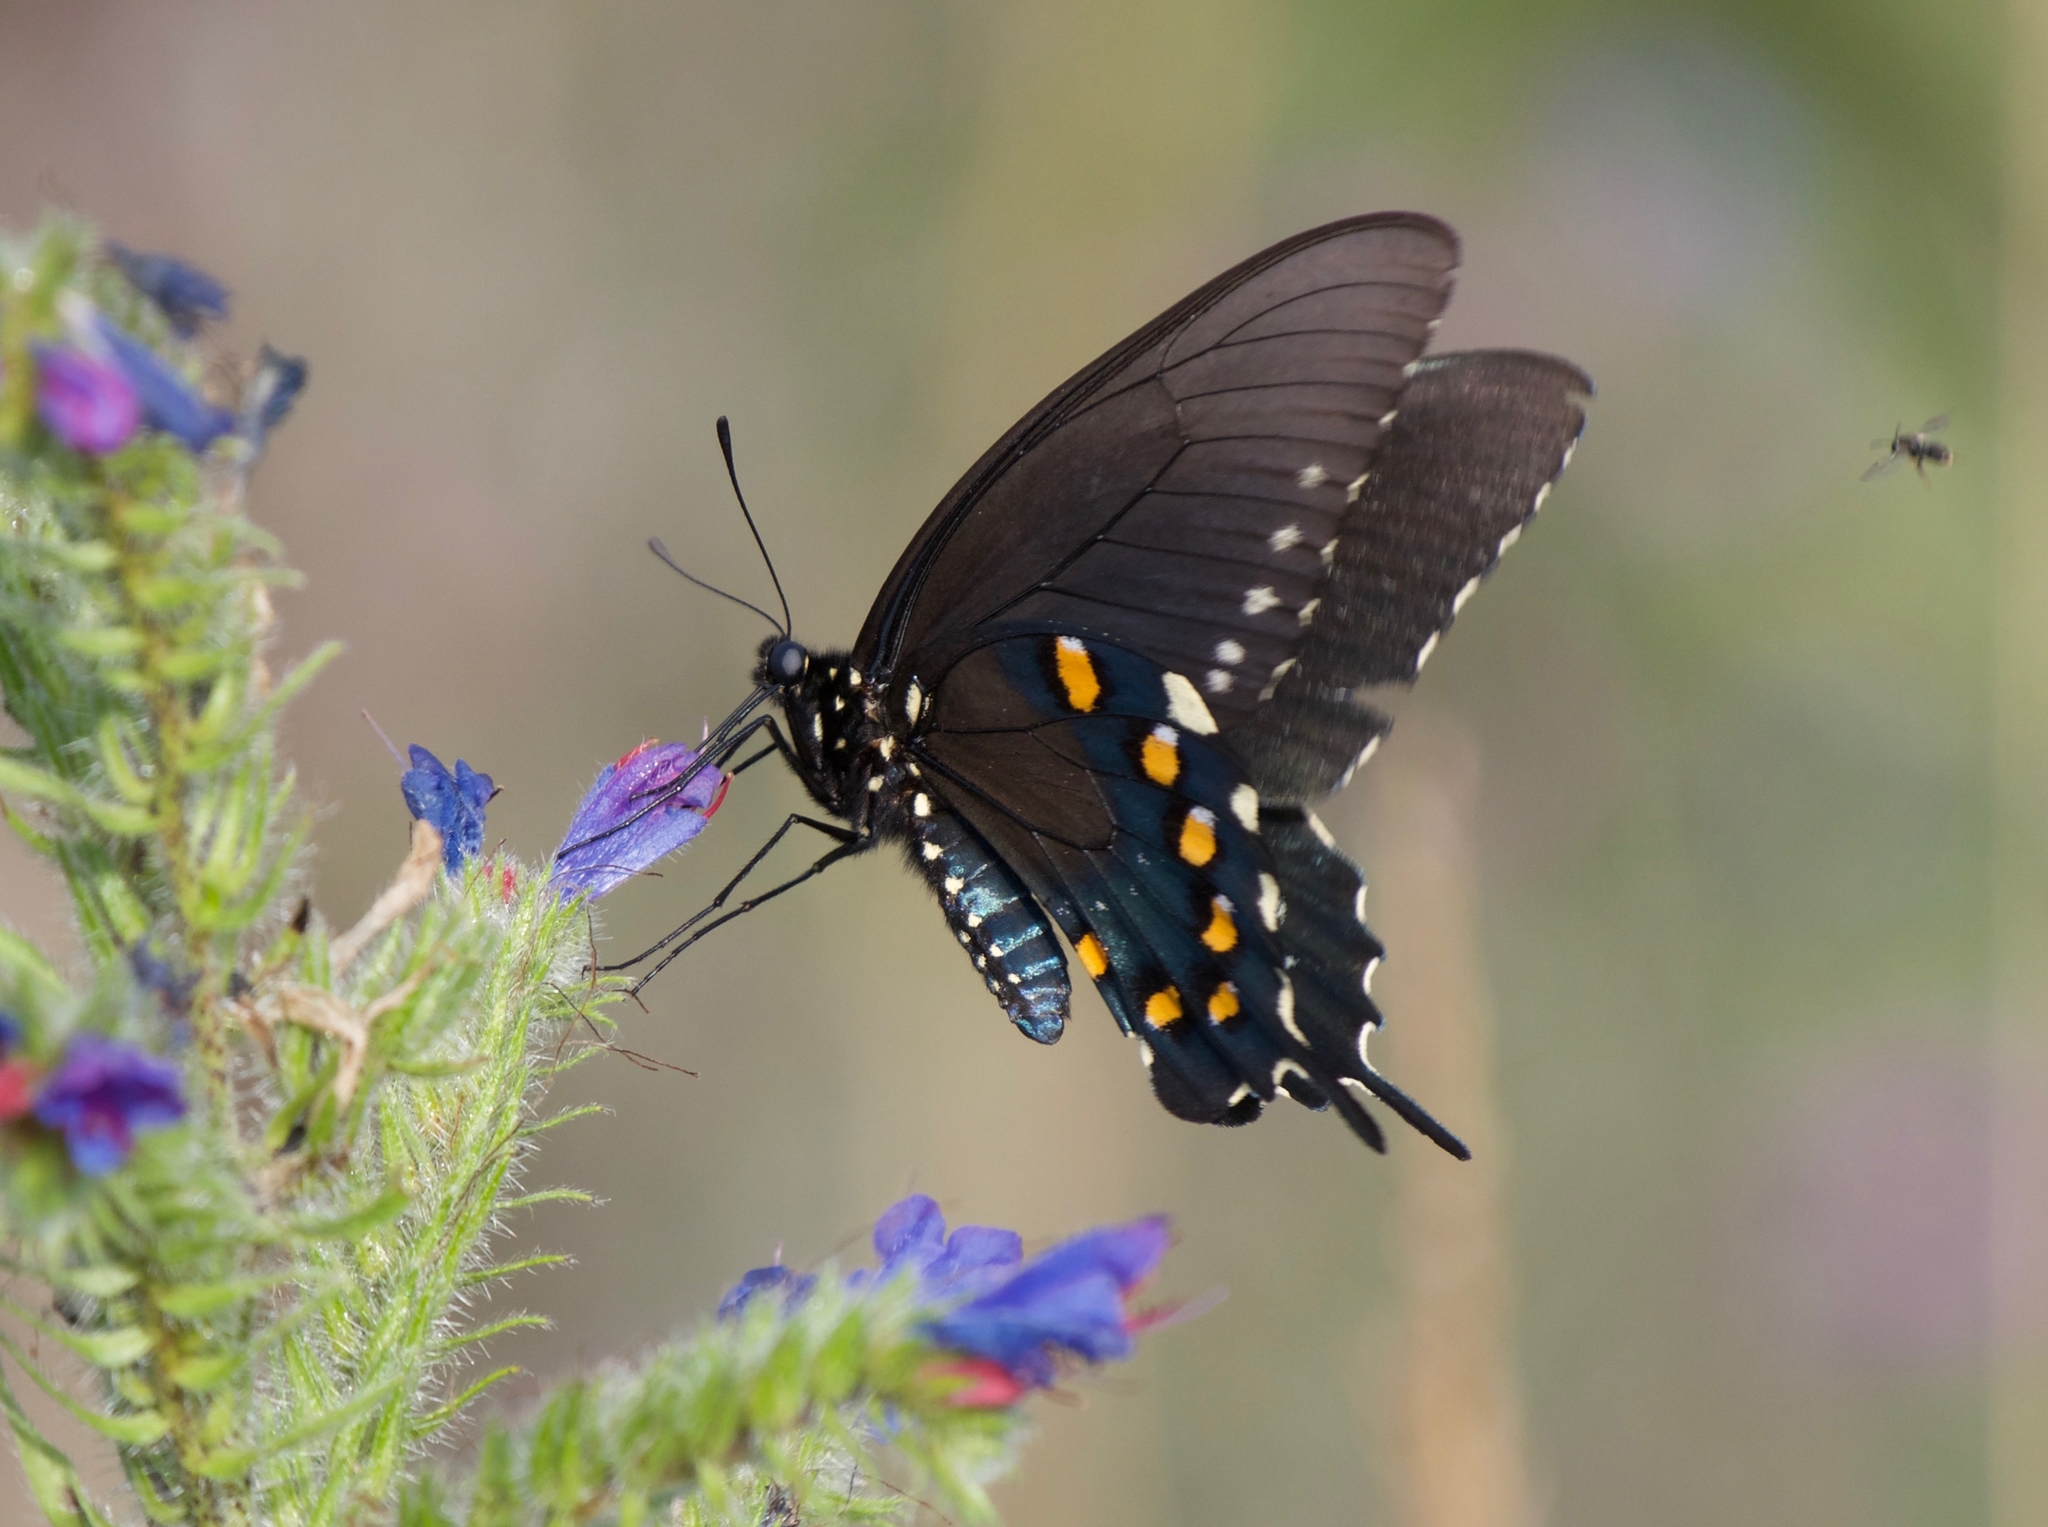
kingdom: Animalia
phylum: Arthropoda
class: Insecta
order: Lepidoptera
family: Papilionidae
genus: Battus
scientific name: Battus philenor
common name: Pipevine swallowtail
